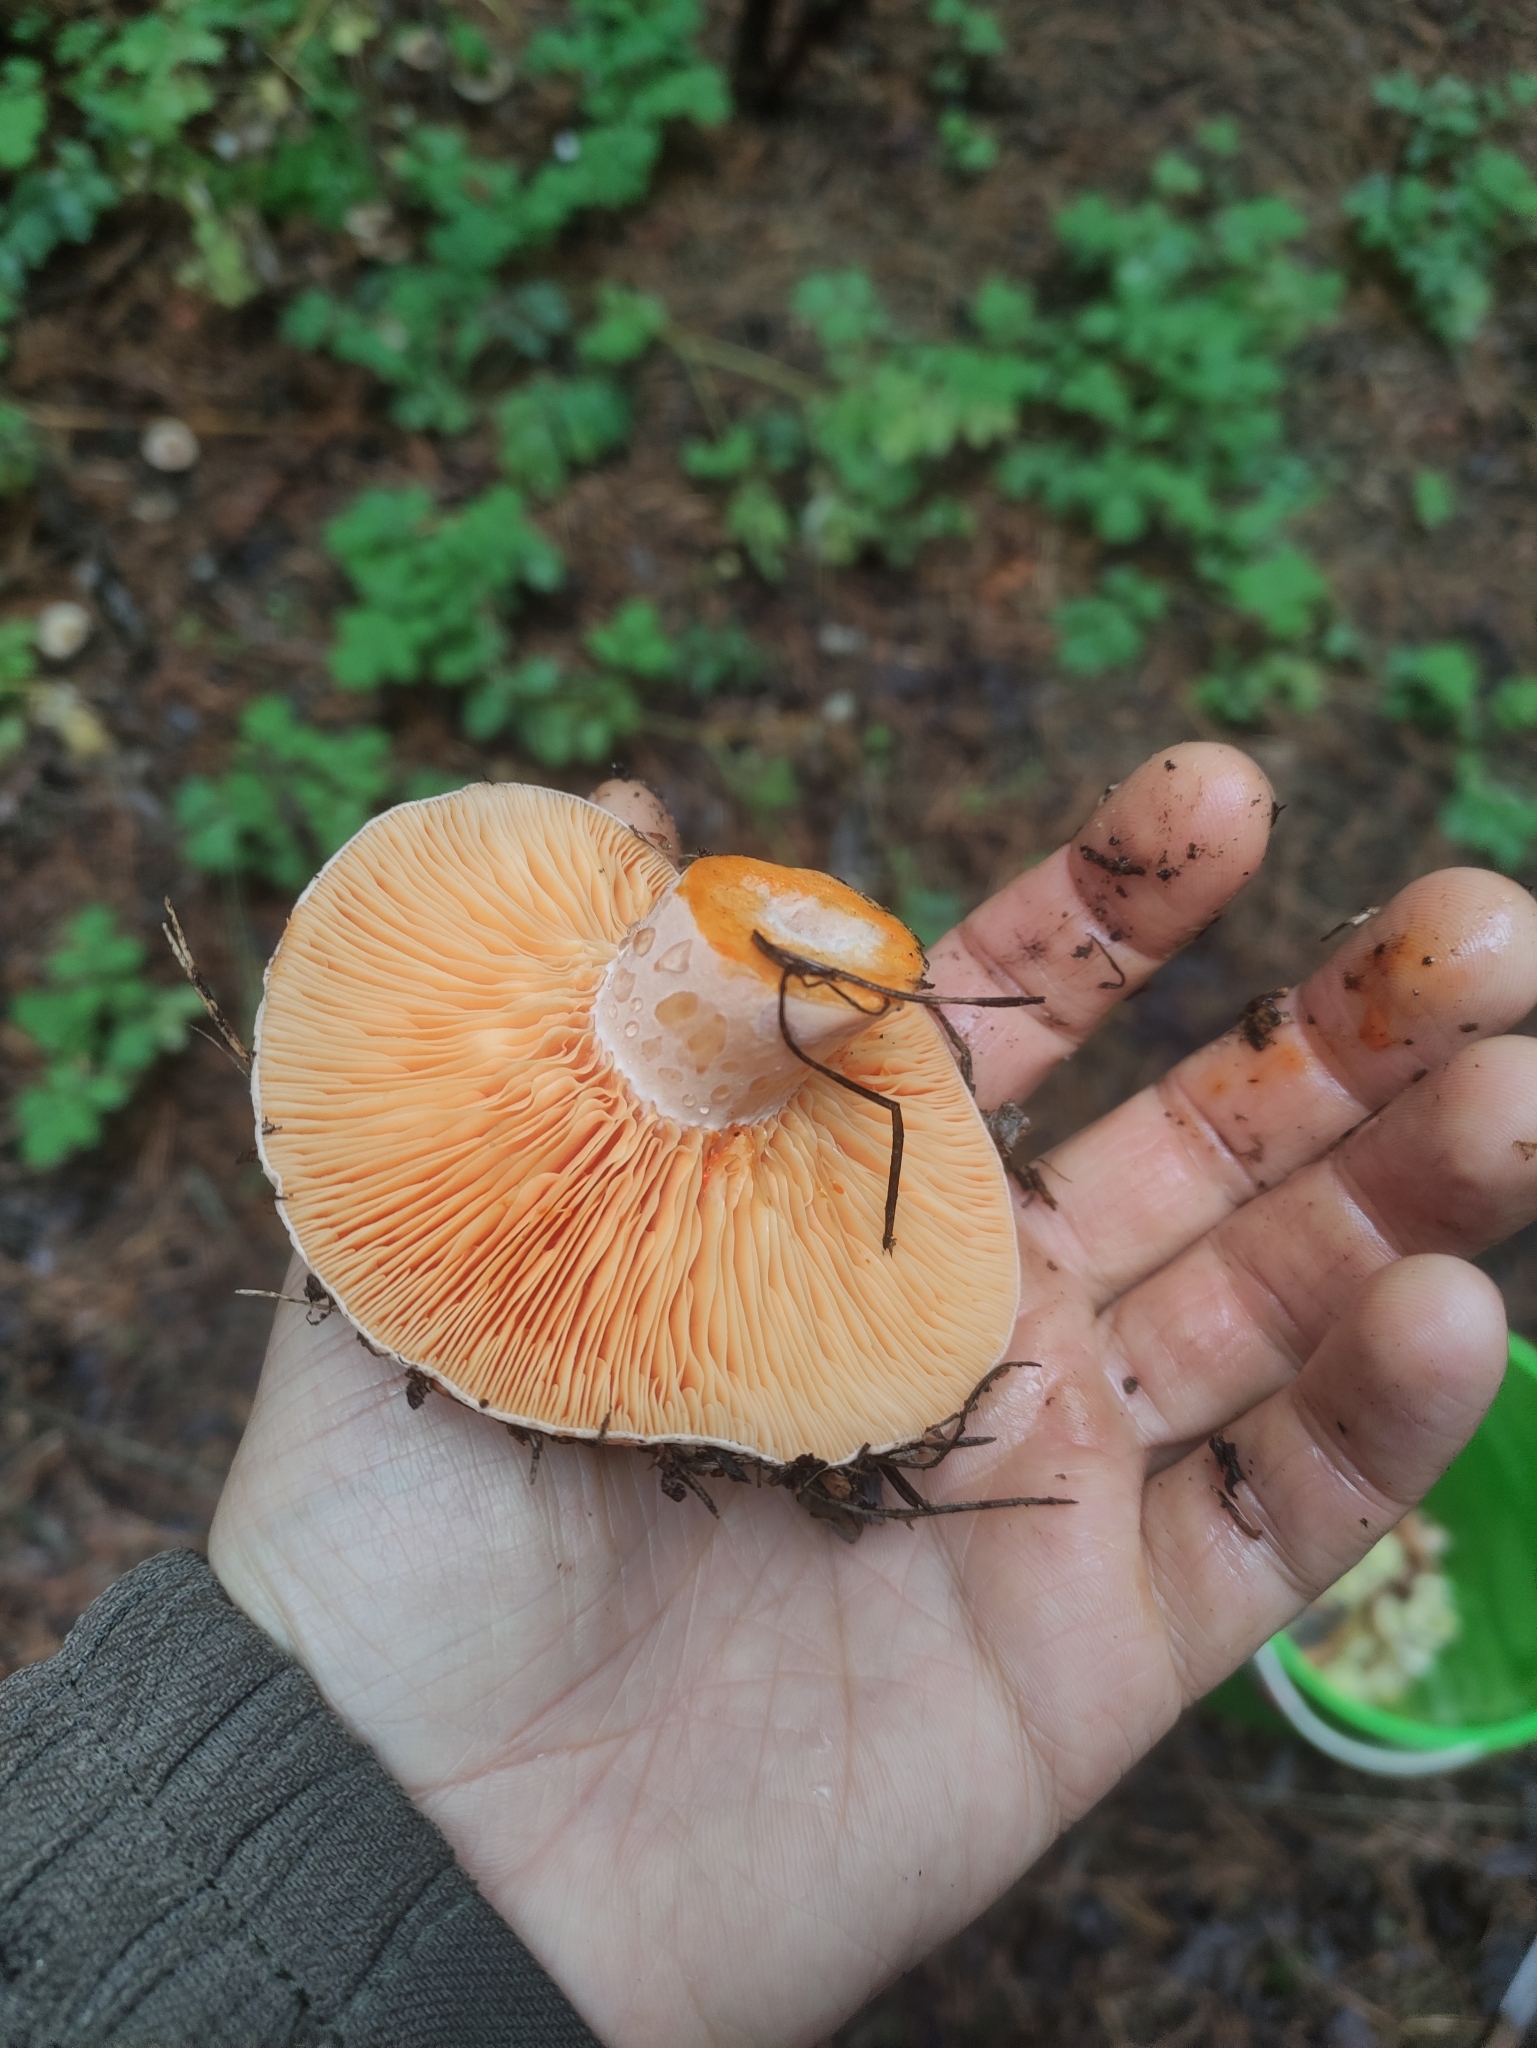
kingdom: Fungi
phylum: Basidiomycota
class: Agaricomycetes
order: Russulales
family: Russulaceae
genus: Lactarius
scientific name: Lactarius deliciosus
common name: Saffron milk-cap
